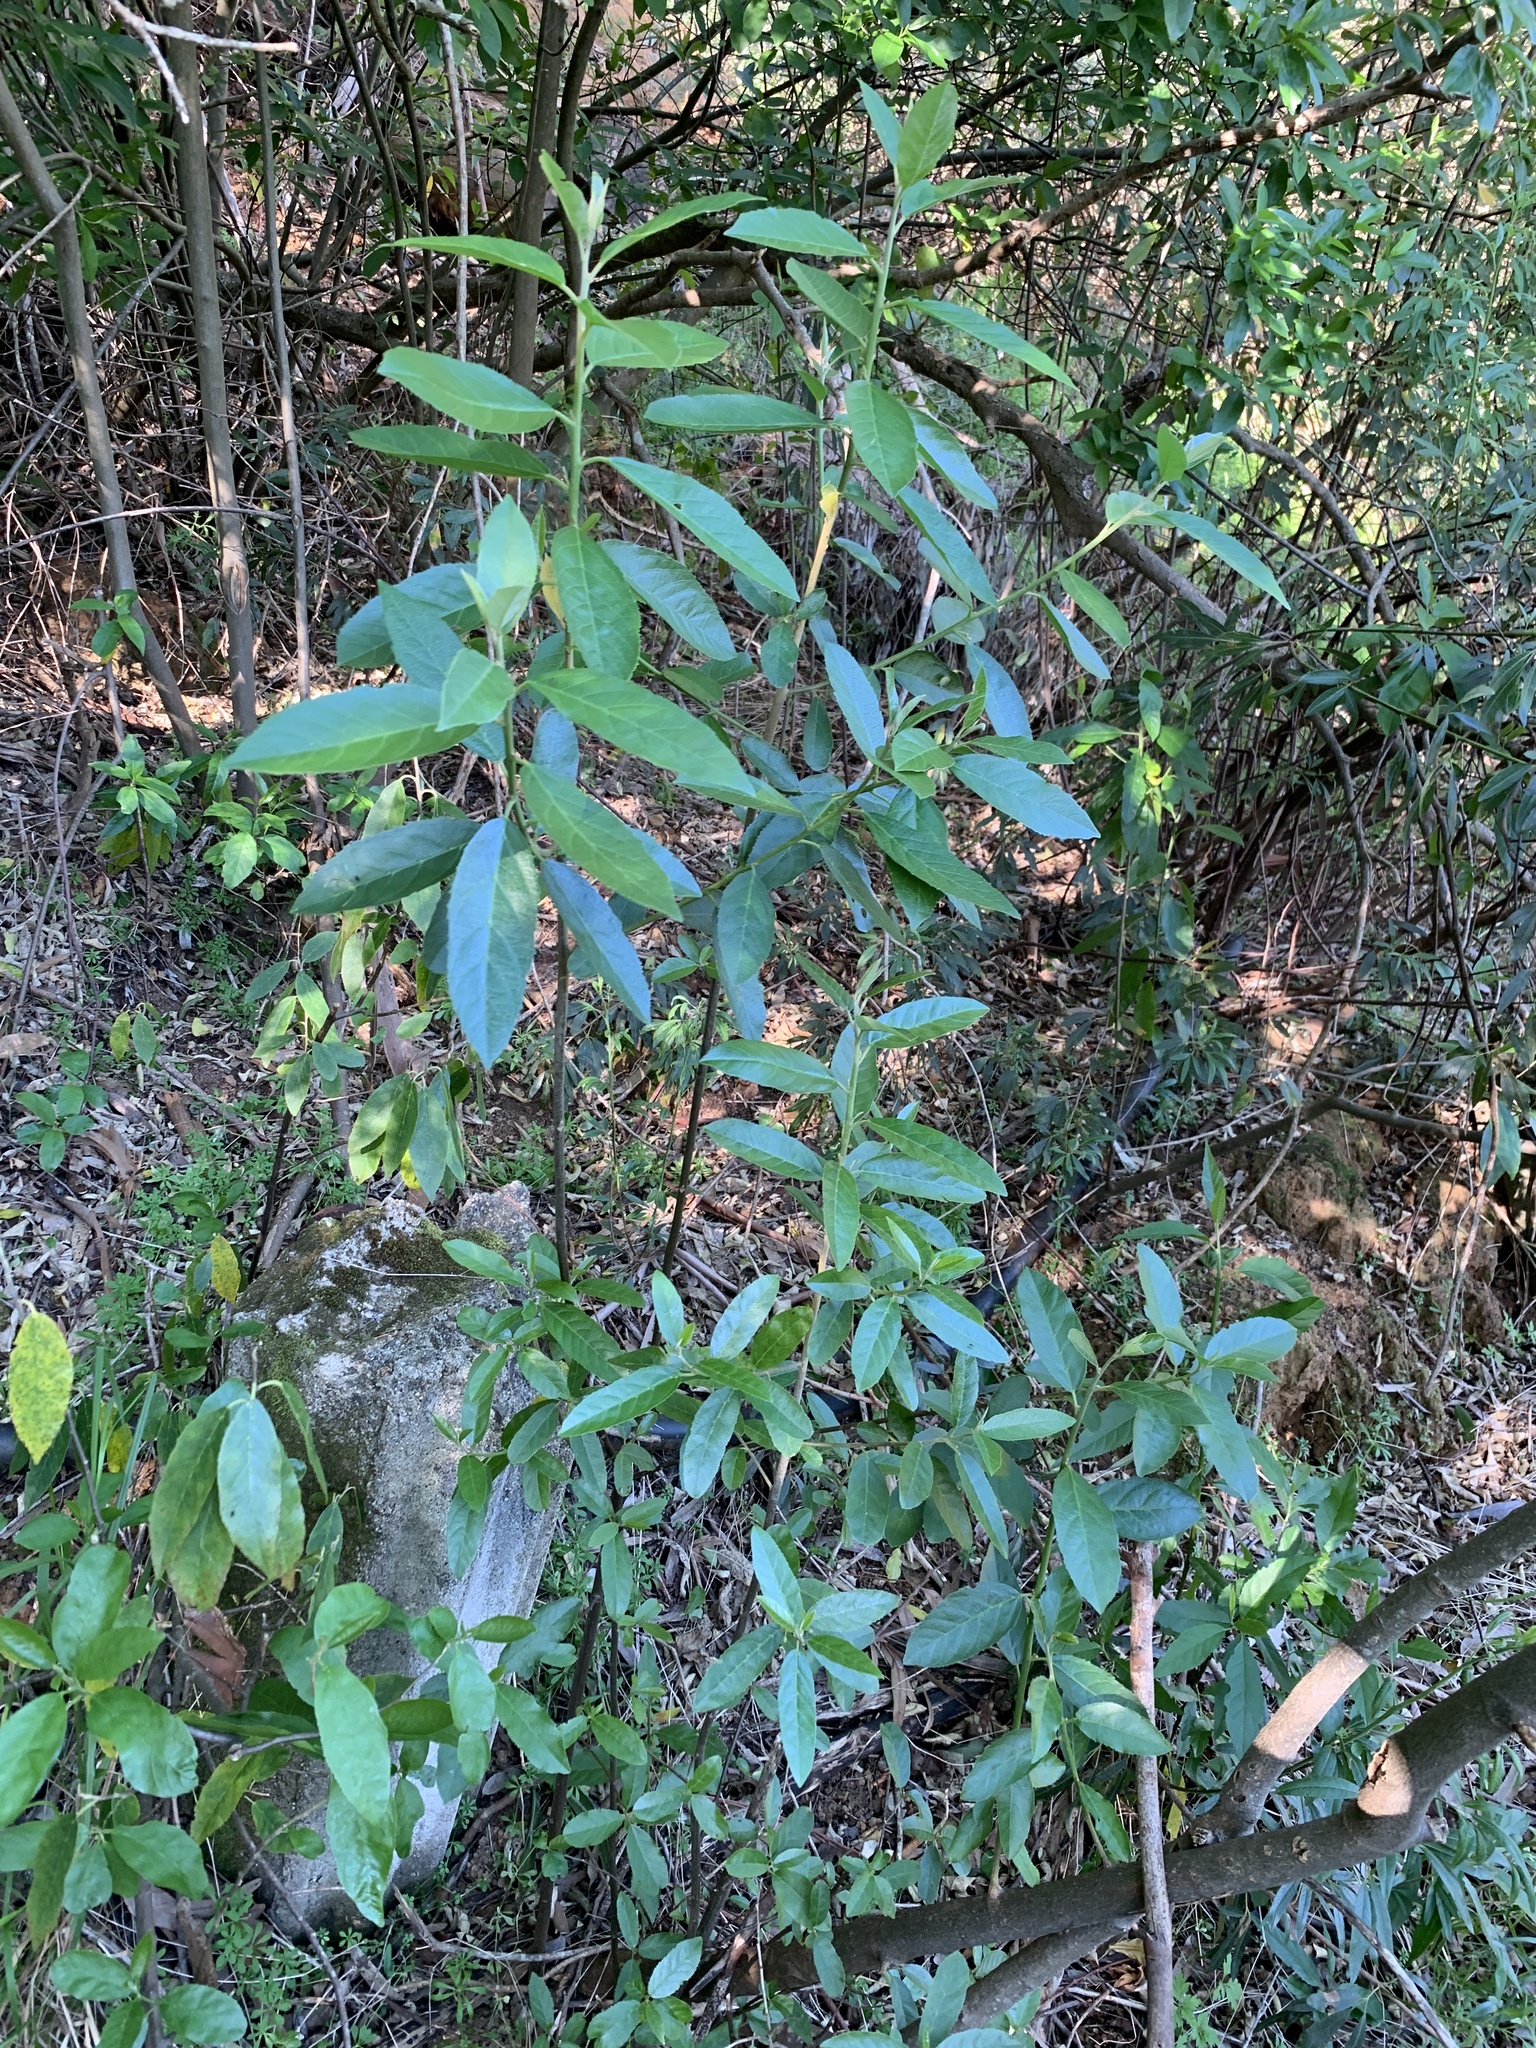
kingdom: Plantae
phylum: Tracheophyta
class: Magnoliopsida
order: Malpighiales
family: Achariaceae
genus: Kiggelaria
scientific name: Kiggelaria africana
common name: Wild peach
